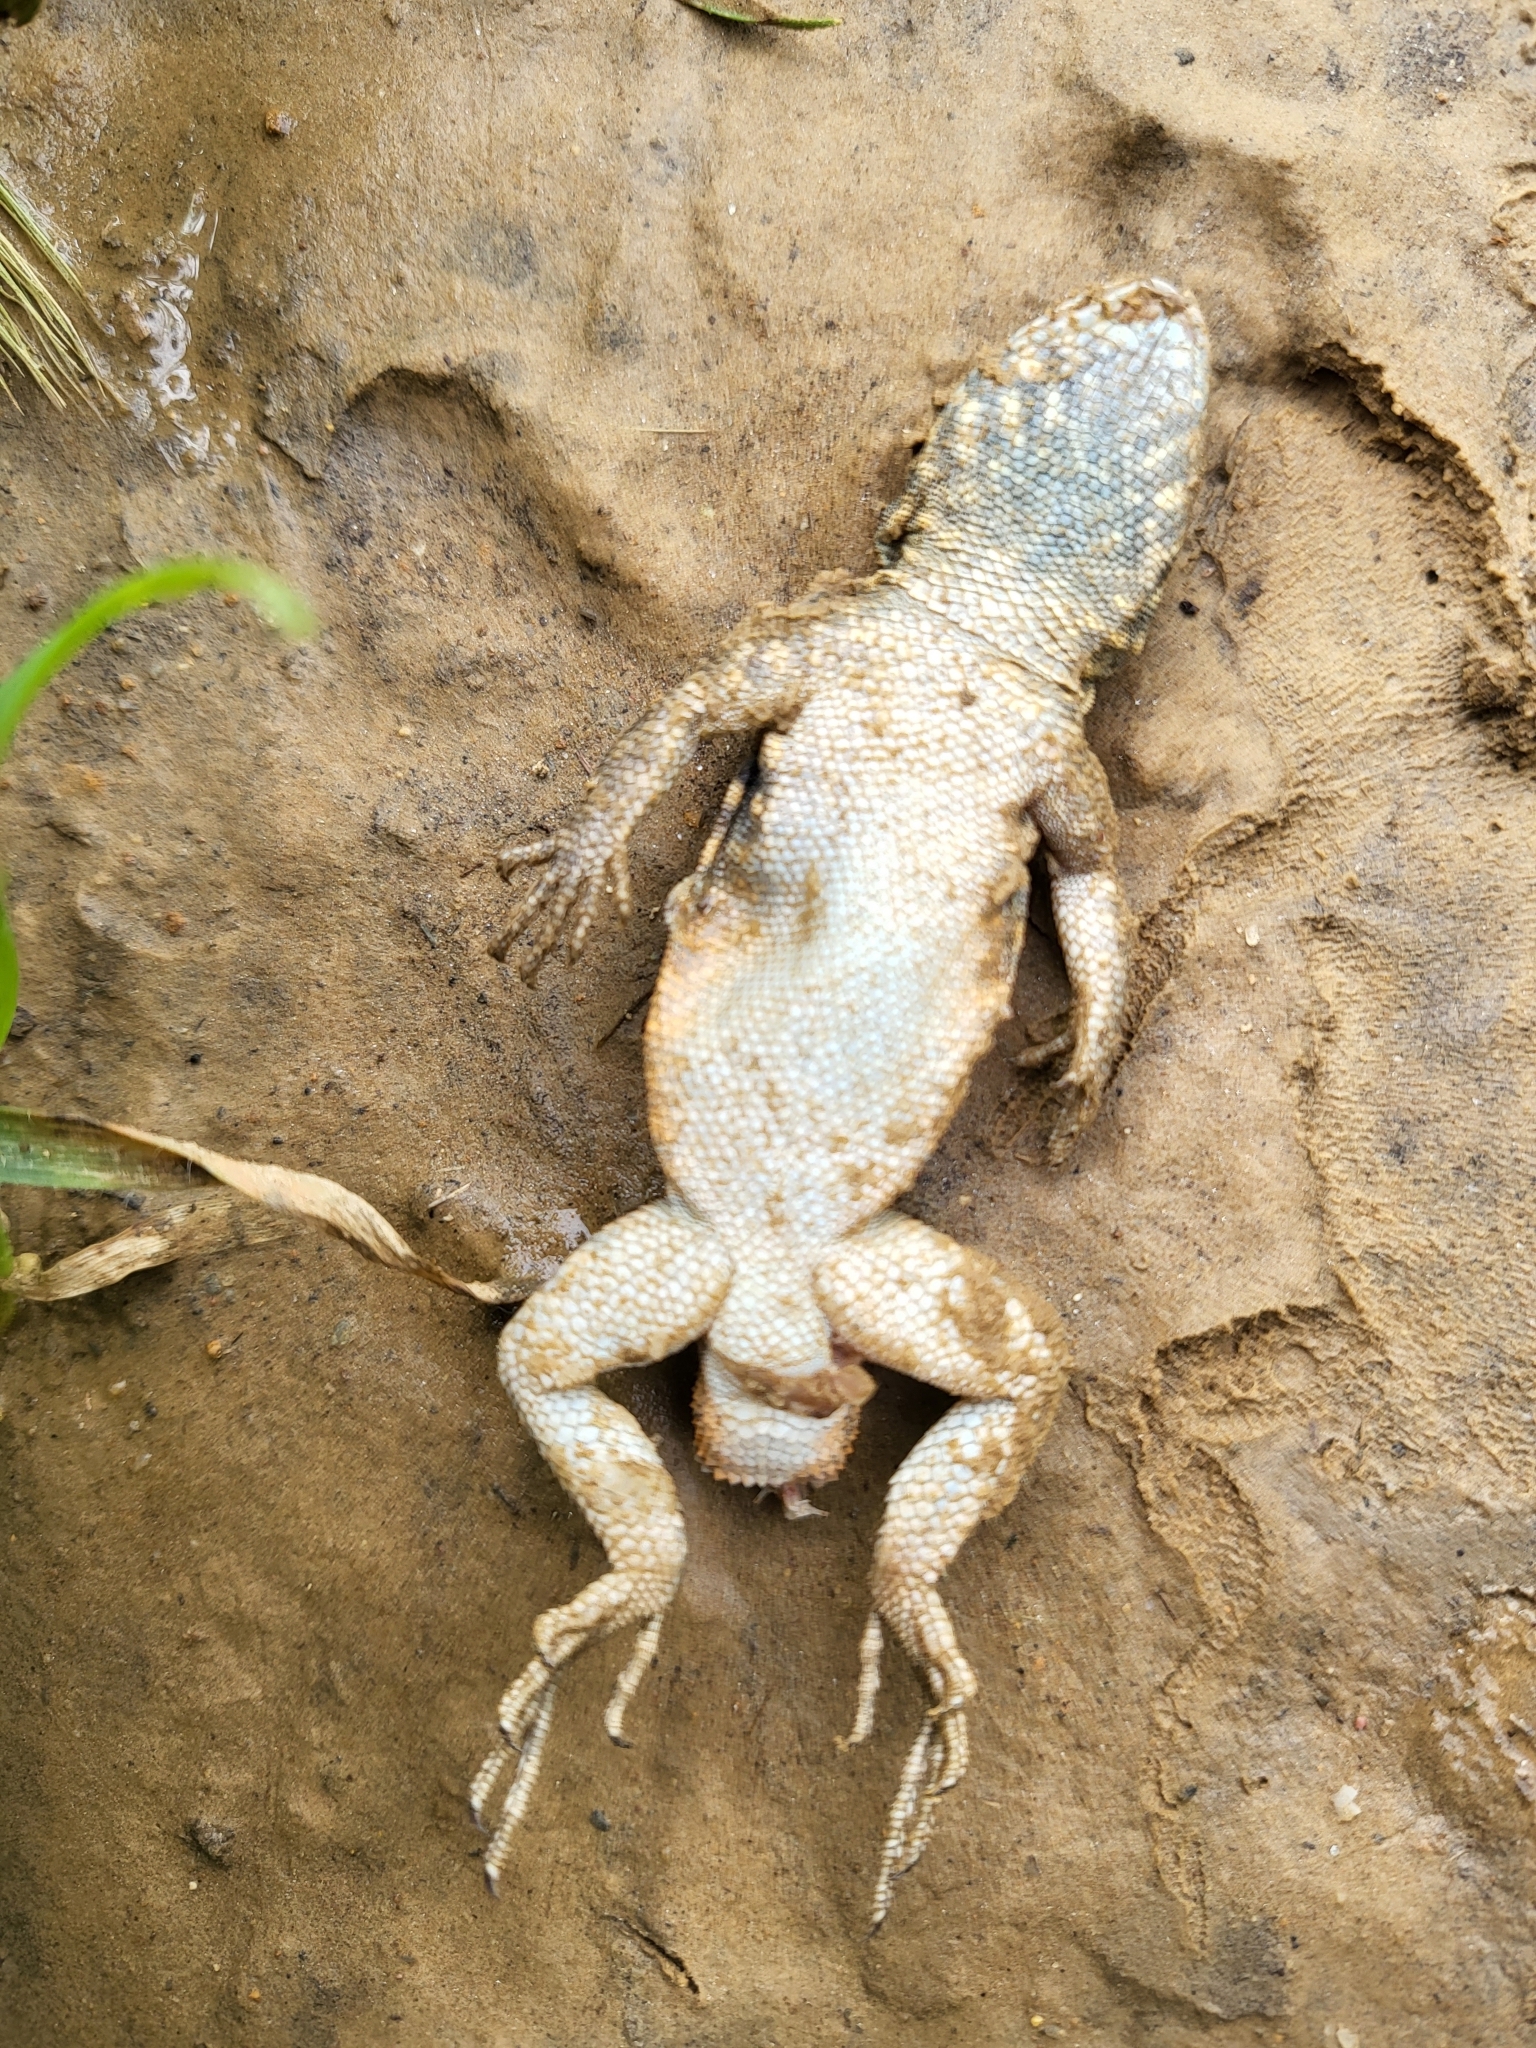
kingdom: Animalia
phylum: Chordata
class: Squamata
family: Phrynosomatidae
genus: Uta
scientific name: Uta stansburiana
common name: Side-blotched lizard
